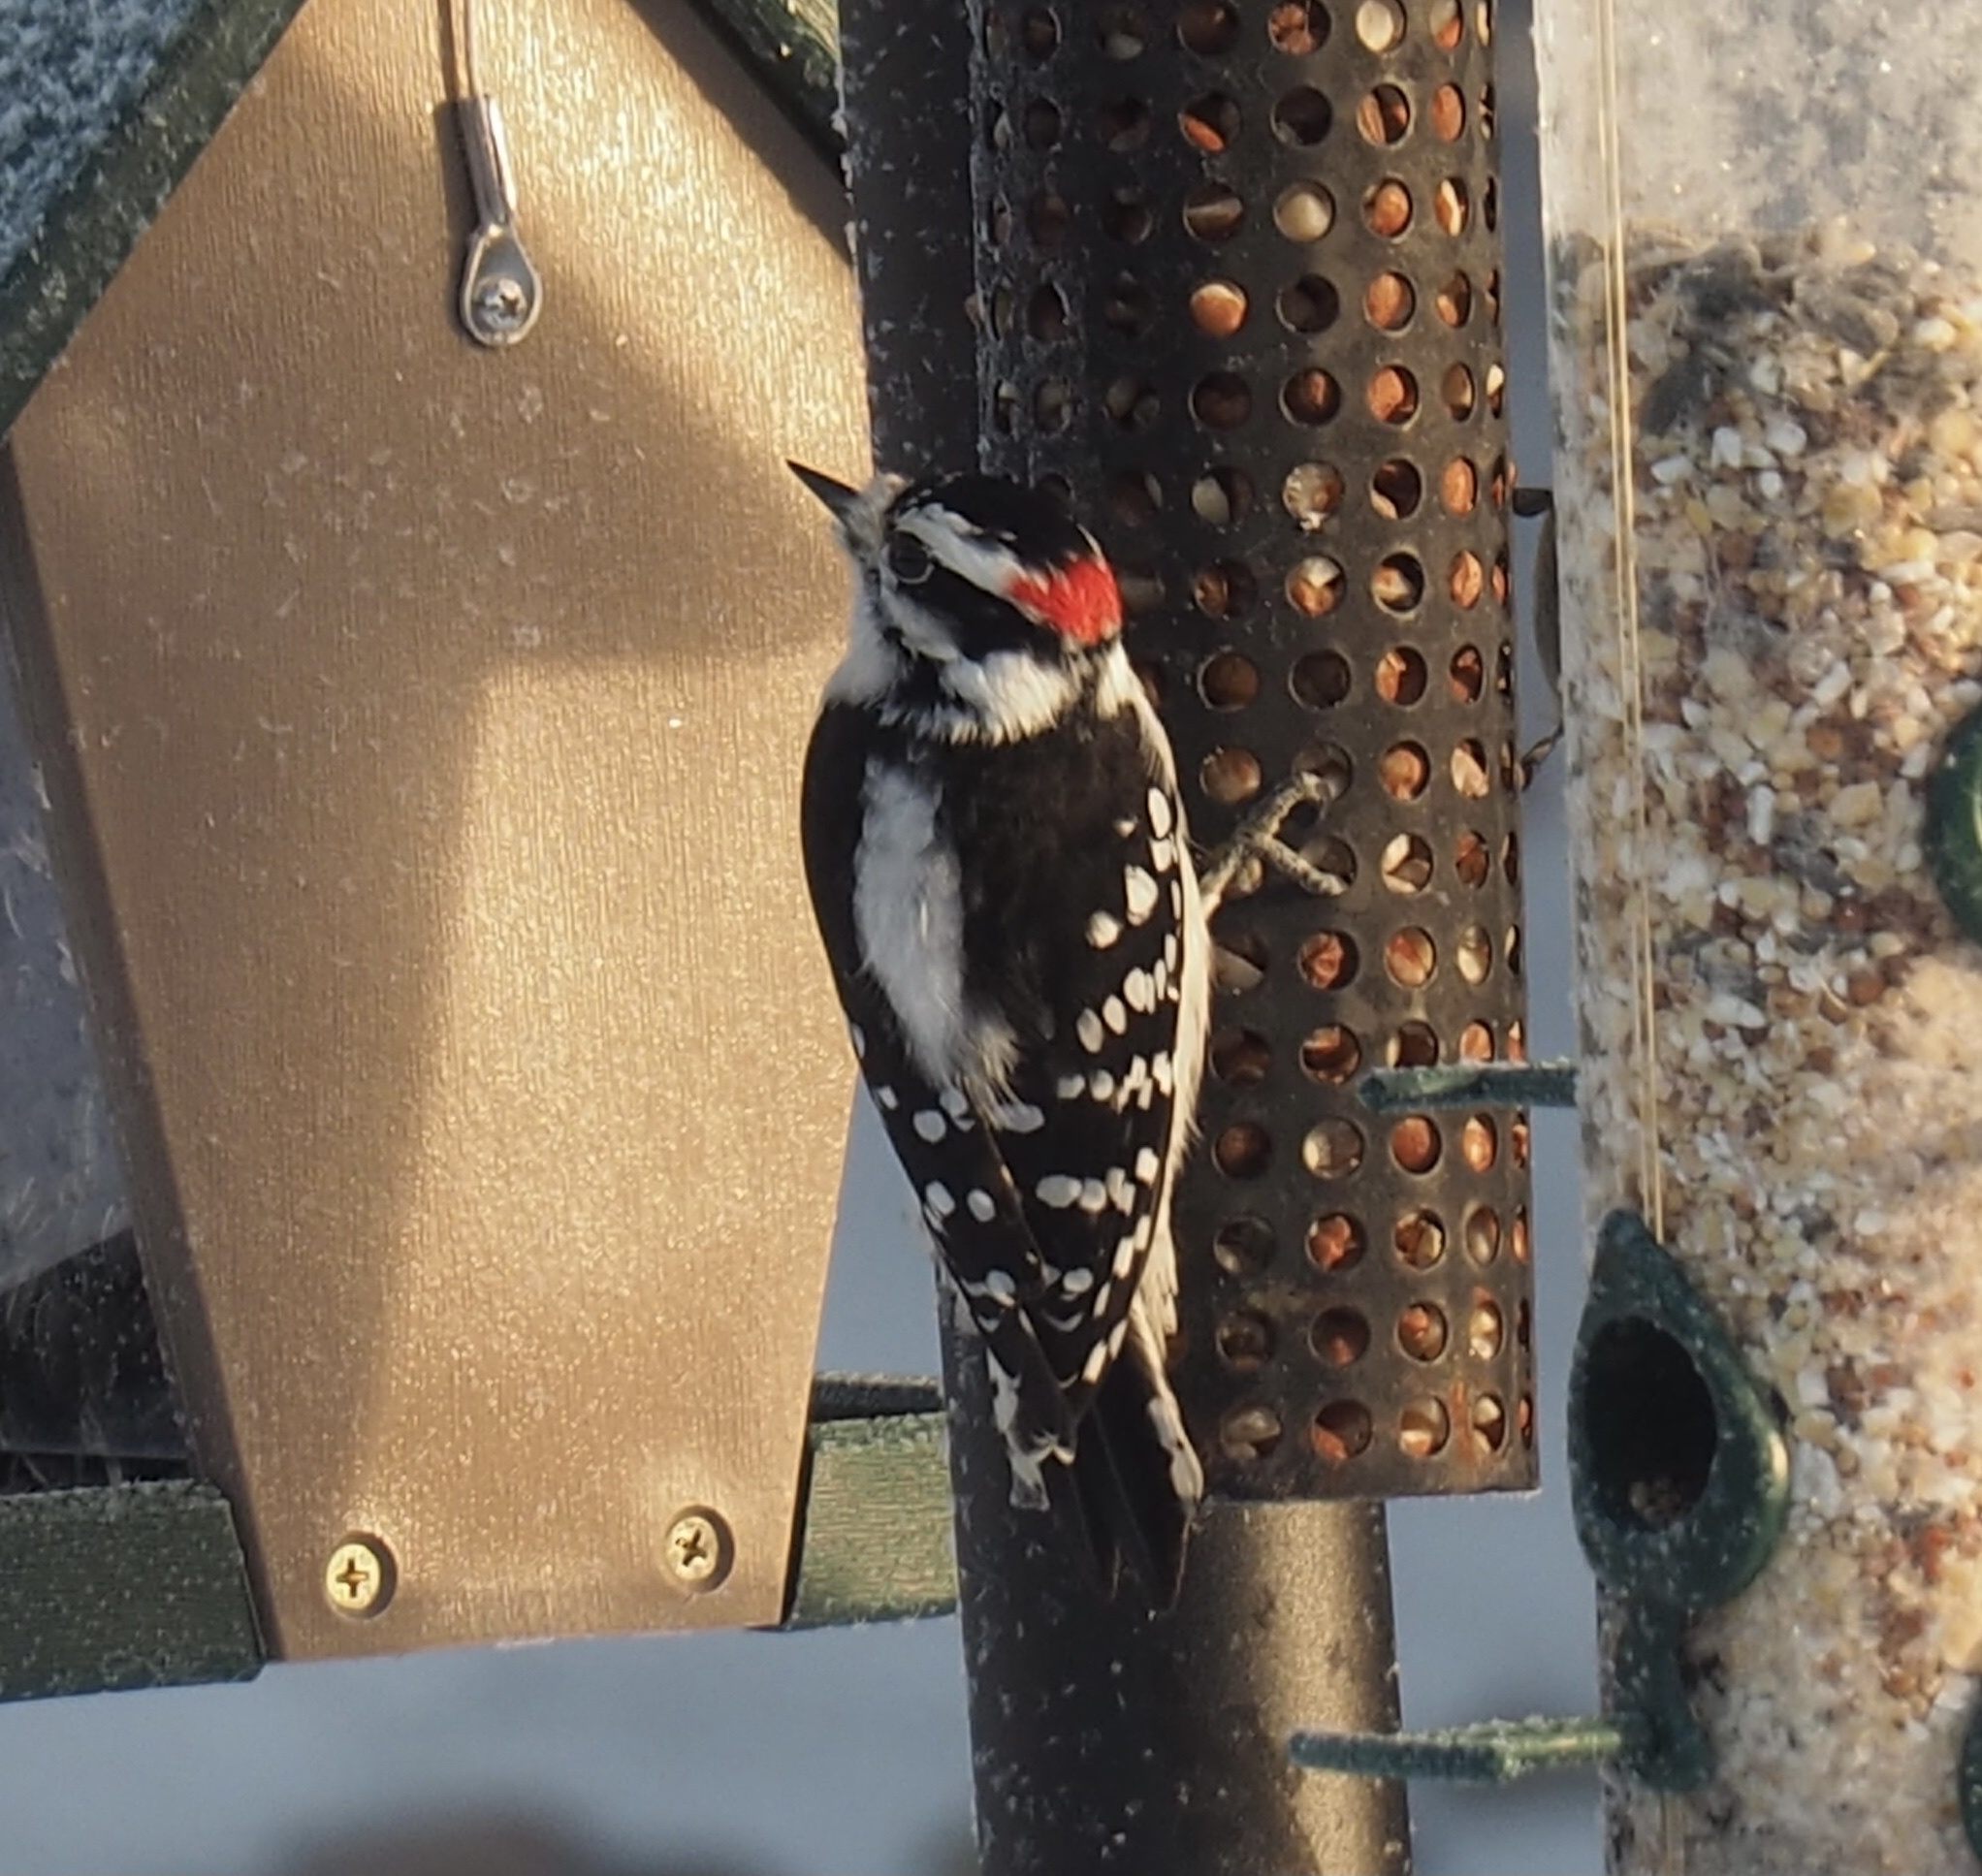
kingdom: Animalia
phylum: Chordata
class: Aves
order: Piciformes
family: Picidae
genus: Dryobates
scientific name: Dryobates pubescens
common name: Downy woodpecker
